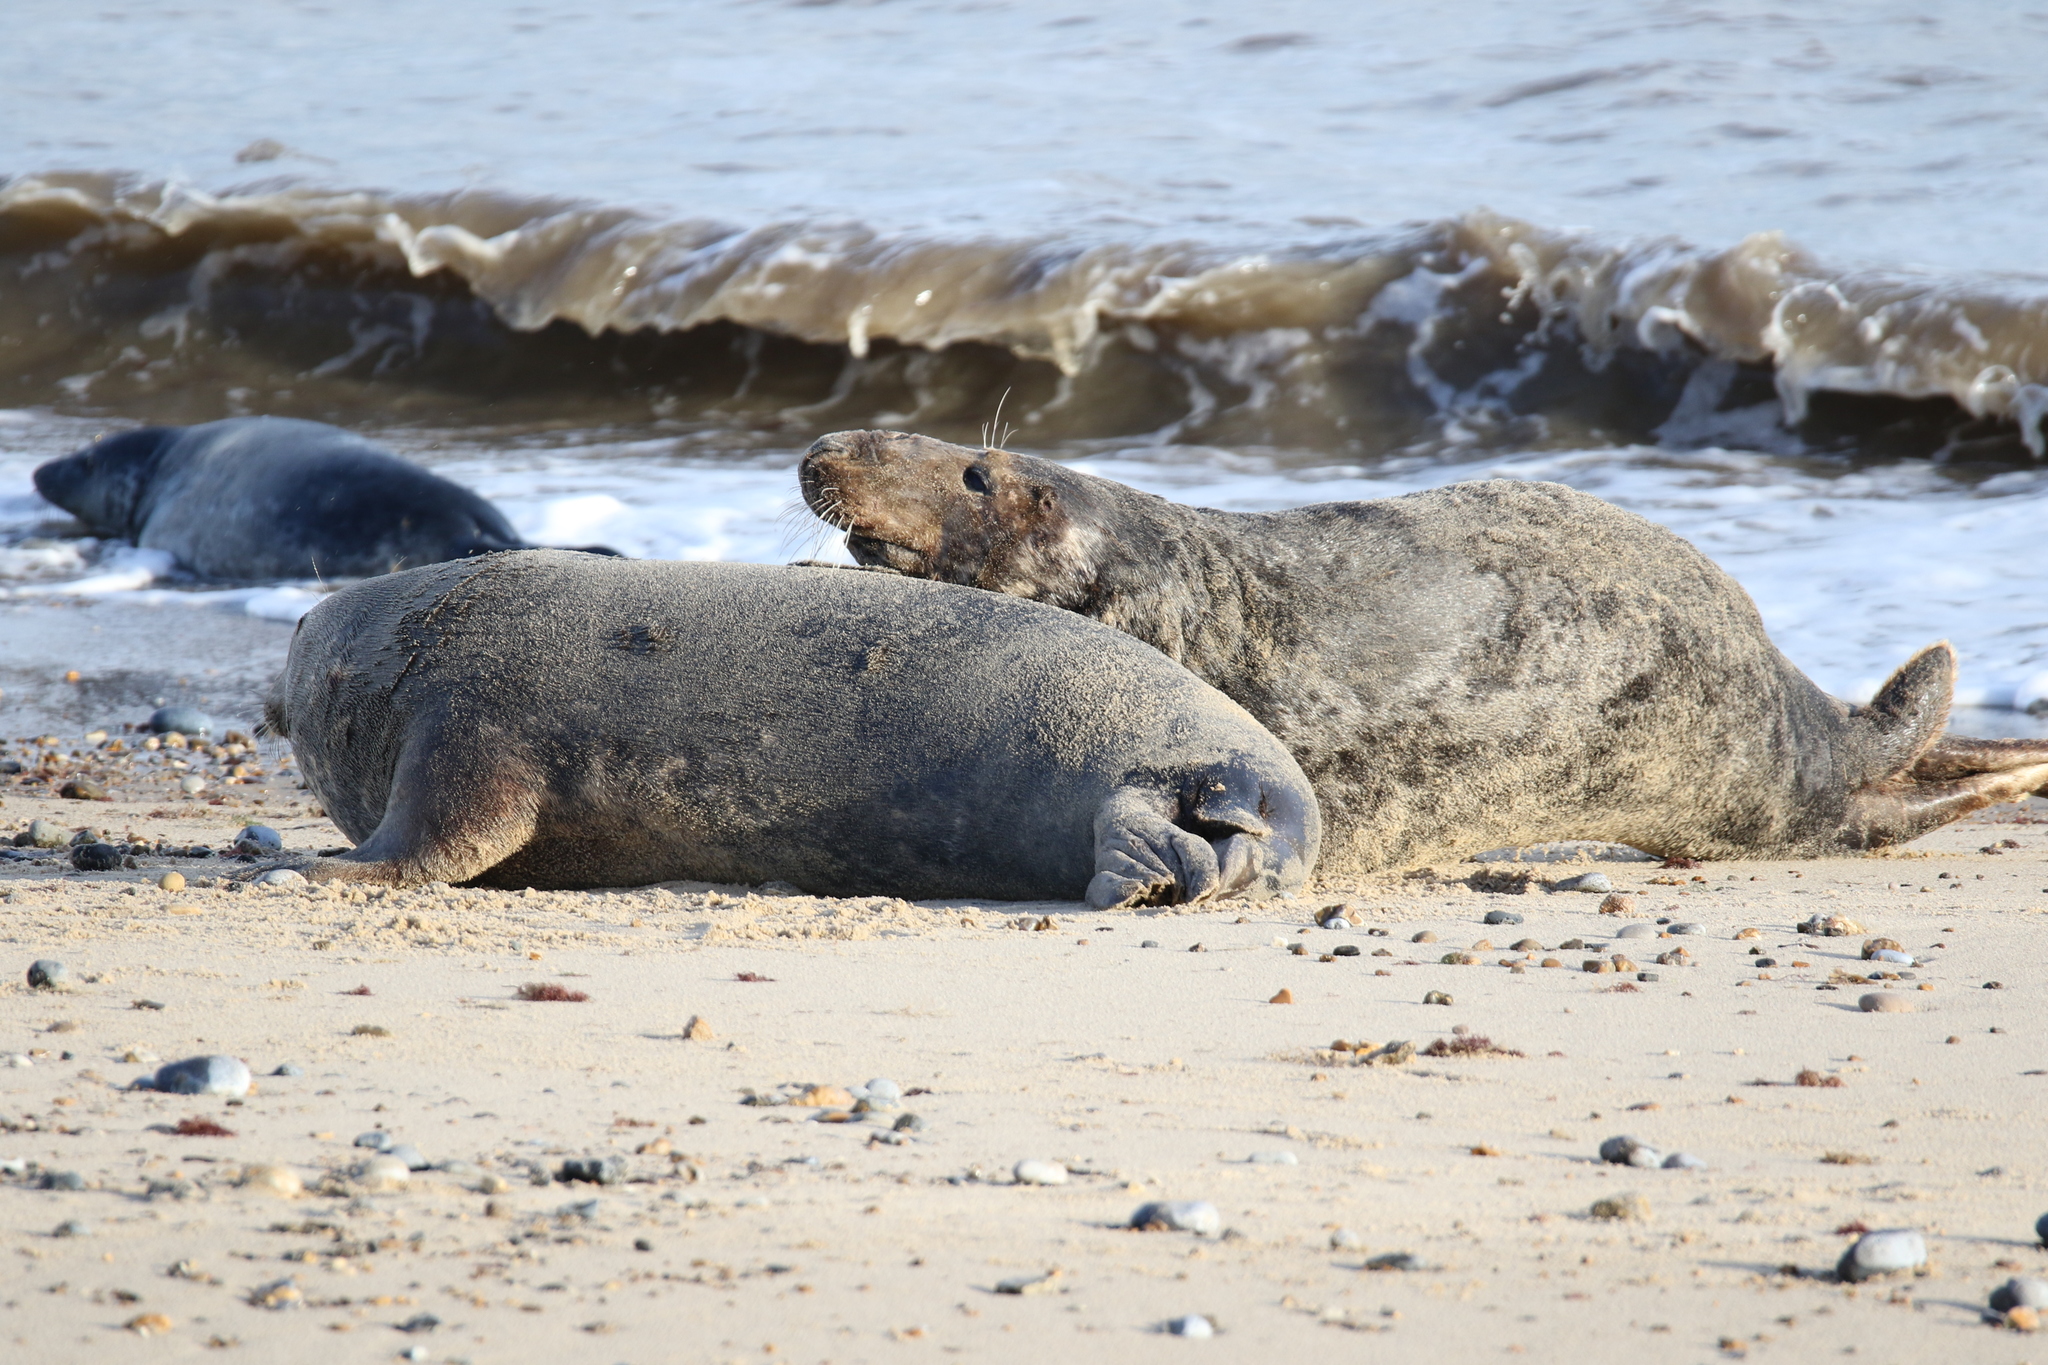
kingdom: Animalia
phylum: Chordata
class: Mammalia
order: Carnivora
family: Phocidae
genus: Halichoerus
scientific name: Halichoerus grypus
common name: Grey seal
